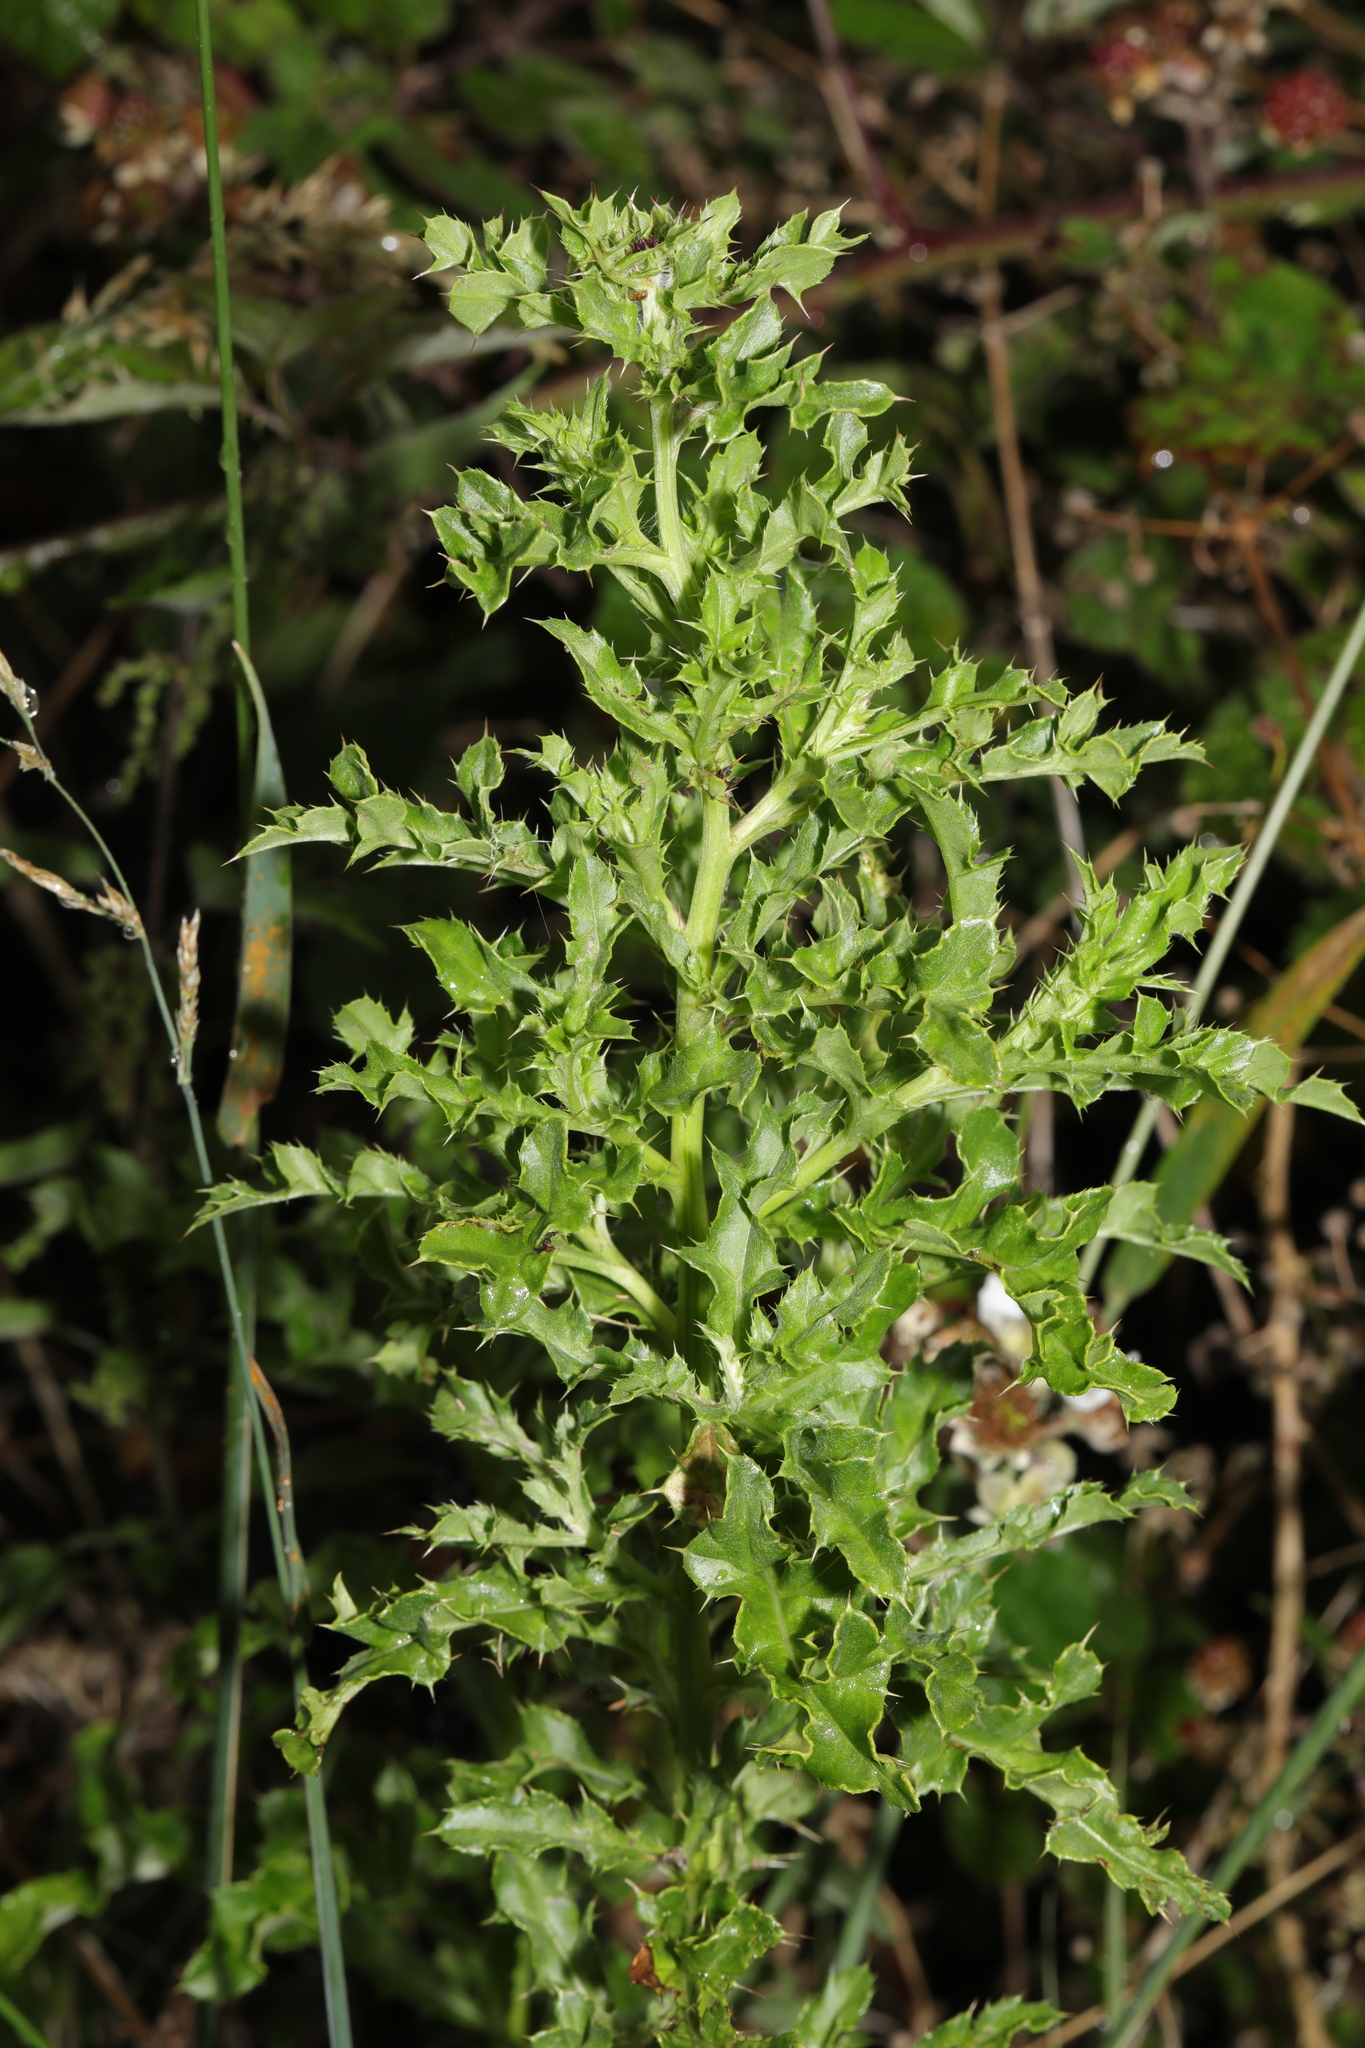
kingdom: Plantae
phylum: Tracheophyta
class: Magnoliopsida
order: Asterales
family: Asteraceae
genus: Cirsium
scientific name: Cirsium arvense
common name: Creeping thistle
